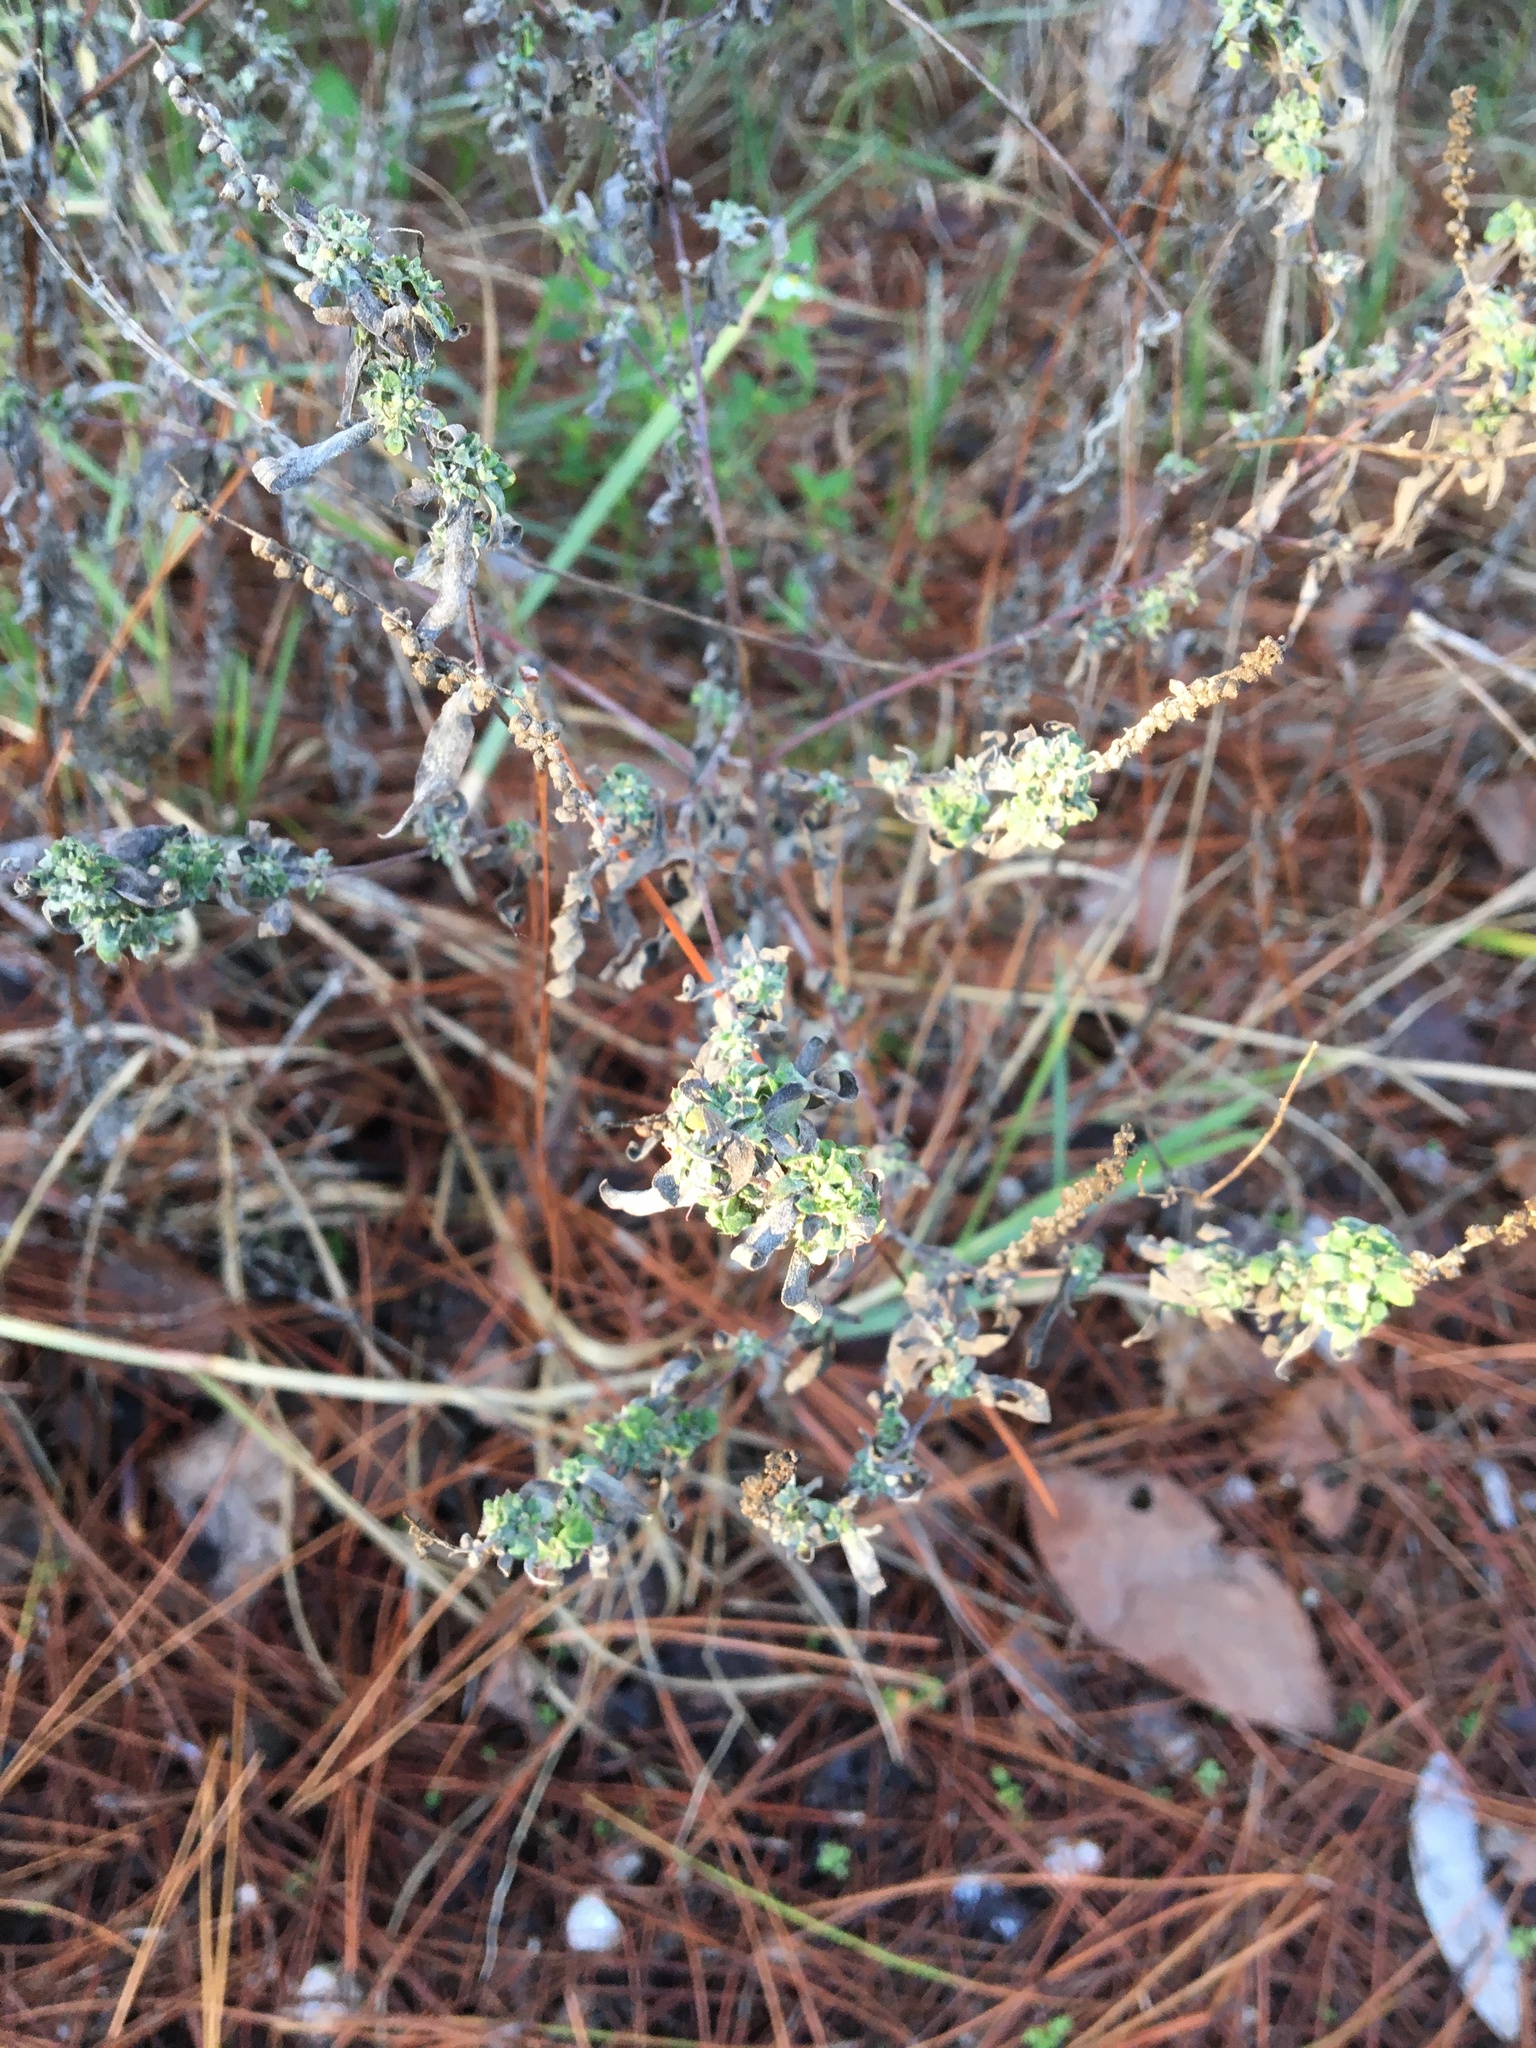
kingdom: Plantae
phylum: Tracheophyta
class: Magnoliopsida
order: Asterales
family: Asteraceae
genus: Ambrosia
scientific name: Ambrosia artemisiifolia
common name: Annual ragweed
